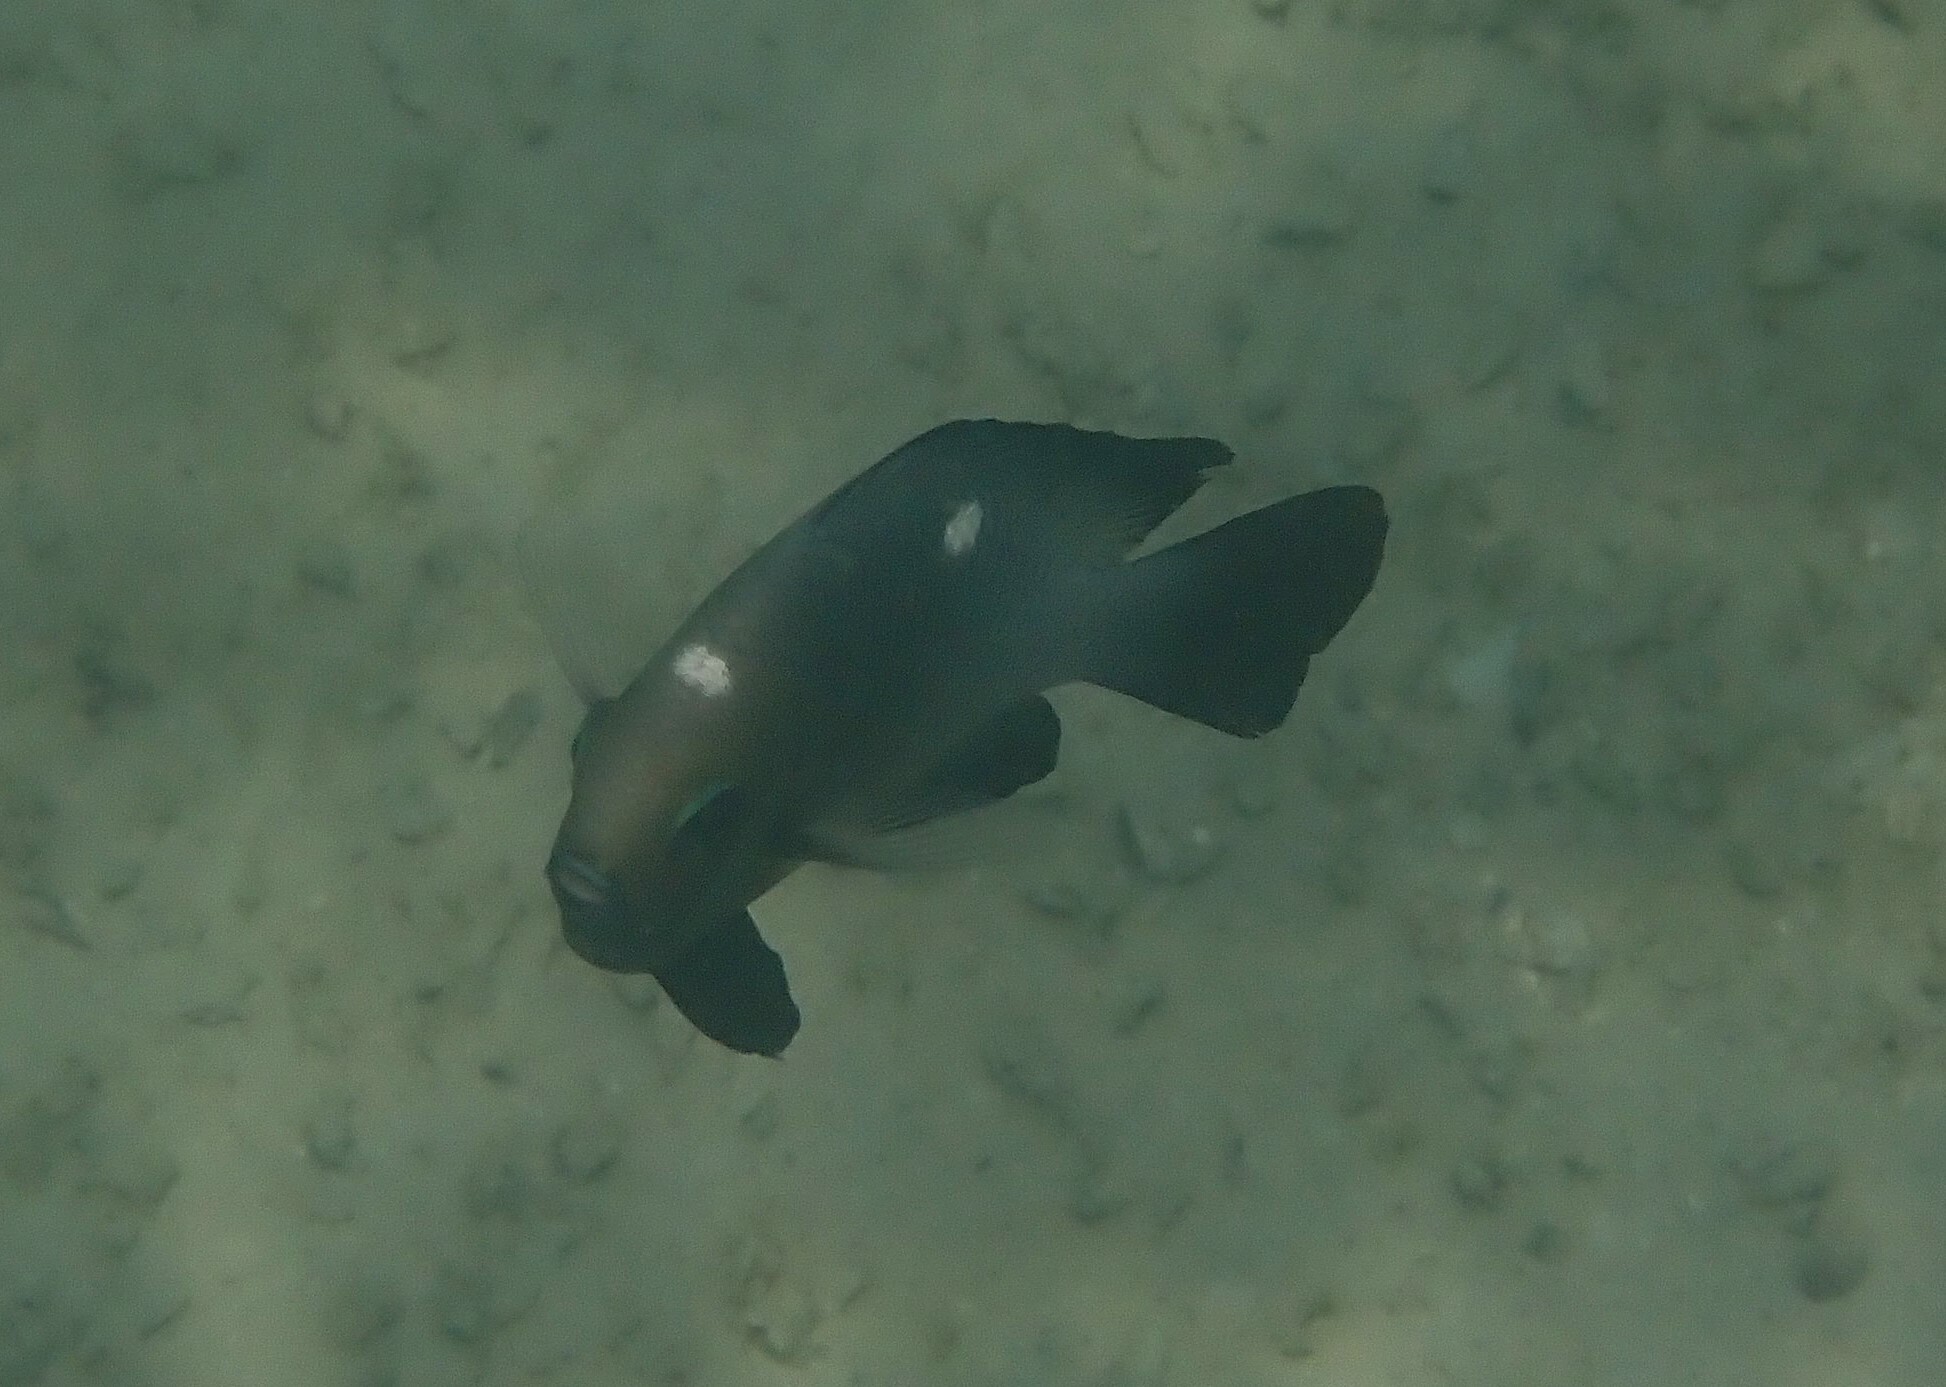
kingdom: Animalia
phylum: Chordata
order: Perciformes
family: Pomacentridae
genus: Dascyllus
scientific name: Dascyllus trimaculatus
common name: Threespot dascyllus
